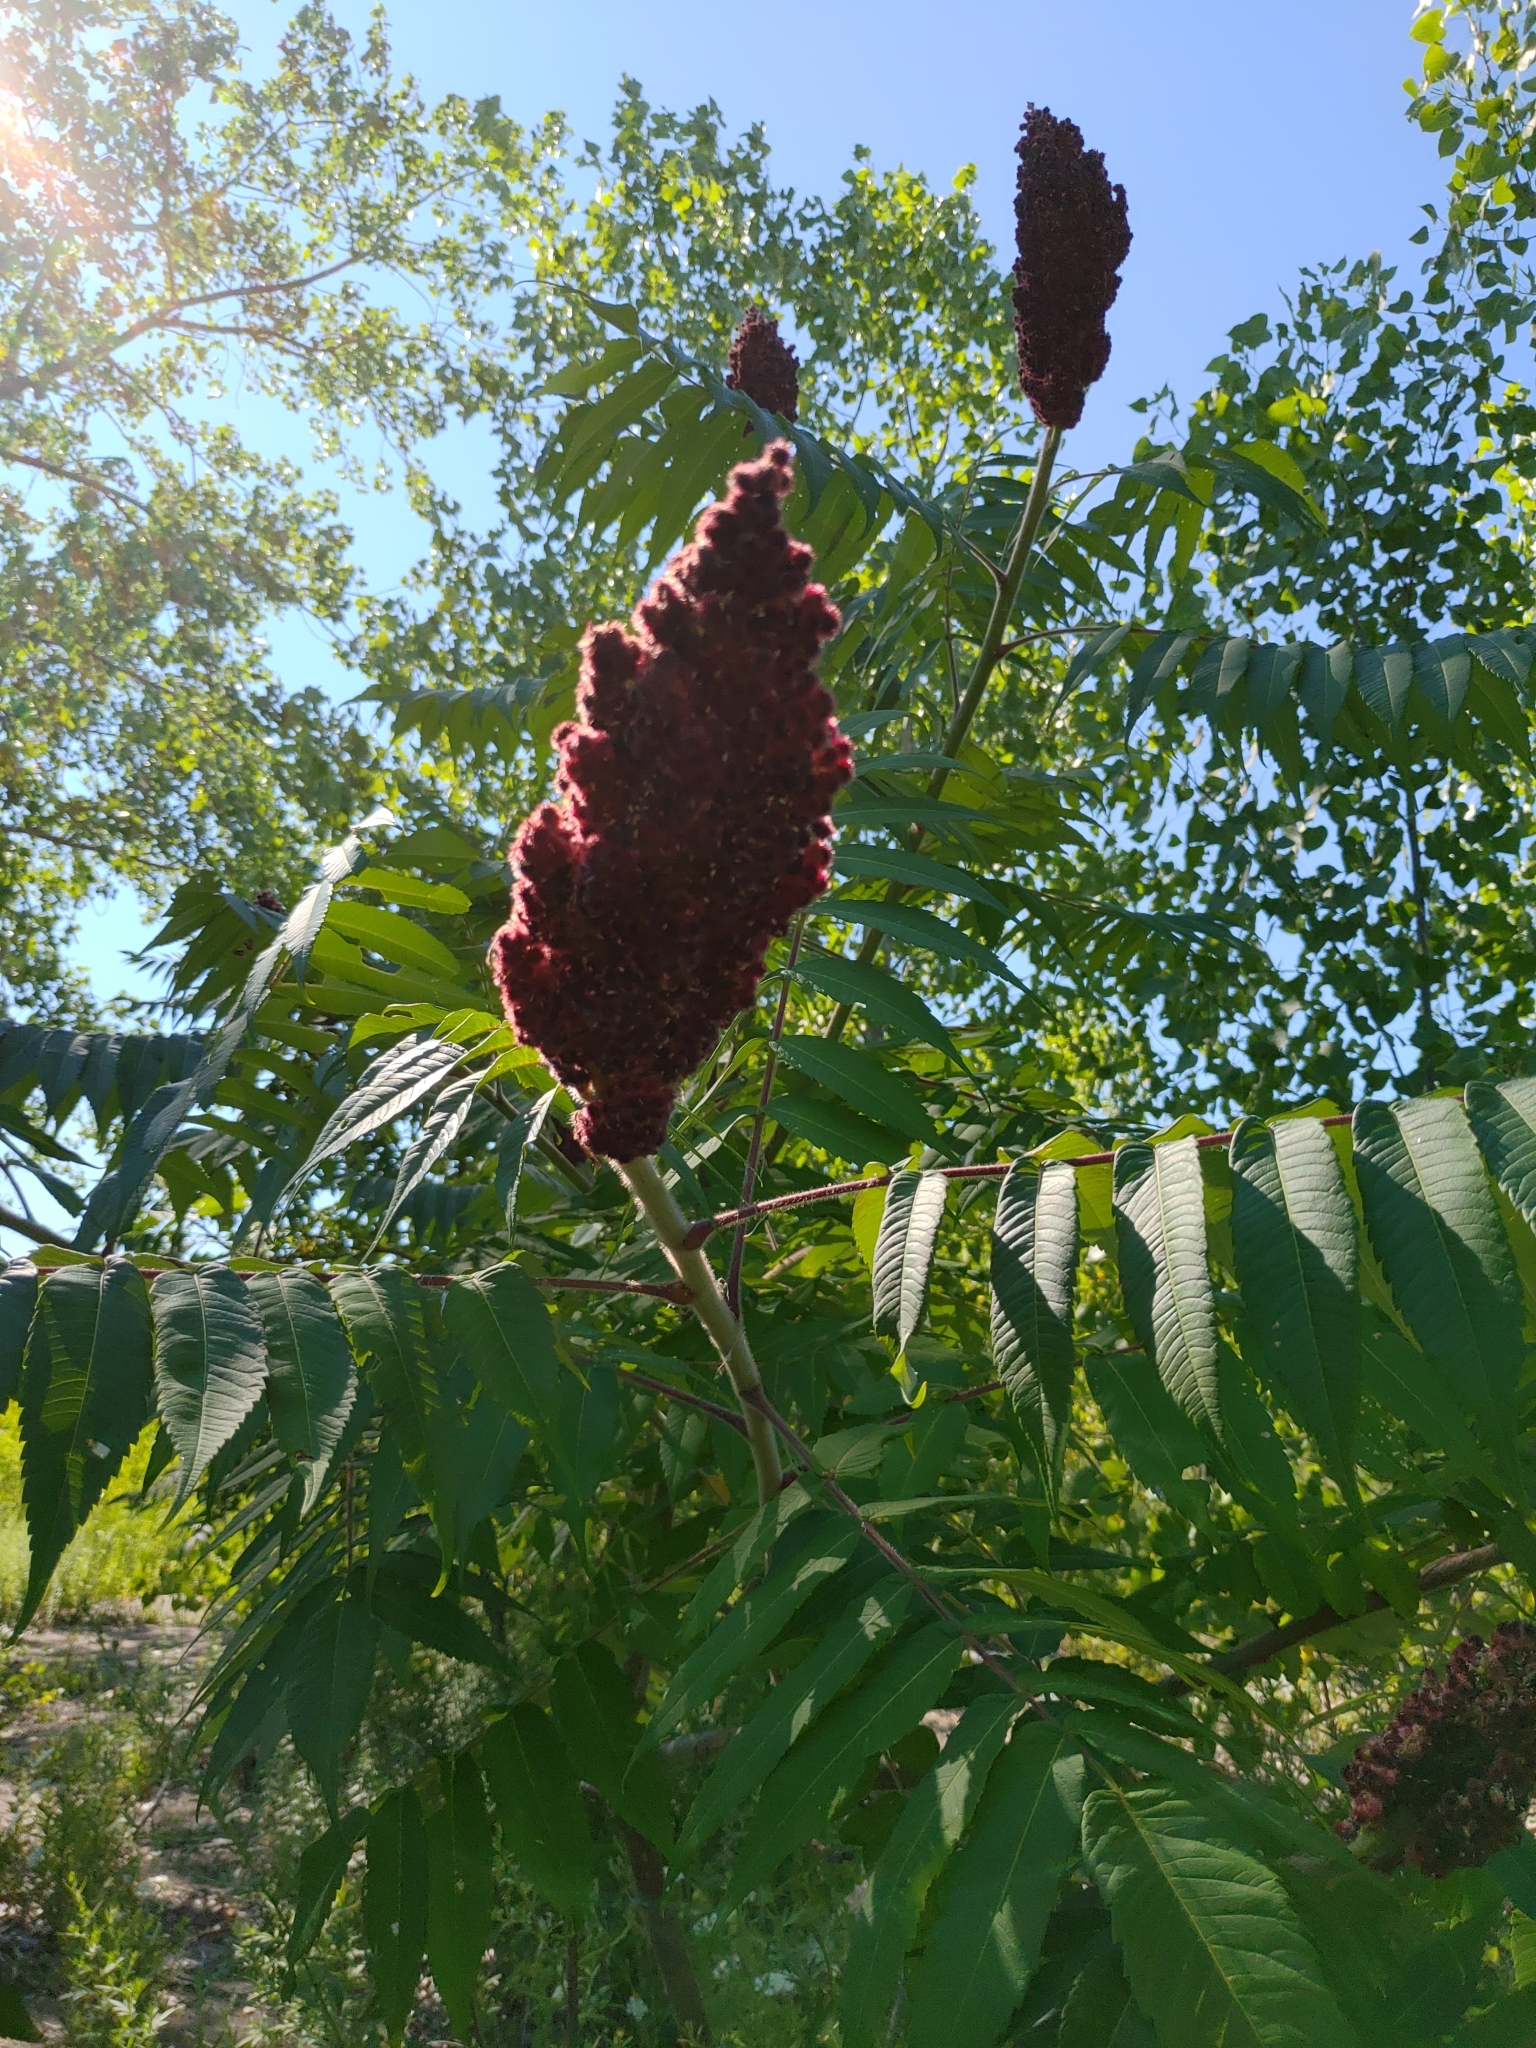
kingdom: Plantae
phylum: Tracheophyta
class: Magnoliopsida
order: Sapindales
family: Anacardiaceae
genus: Rhus
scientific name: Rhus typhina
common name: Staghorn sumac
